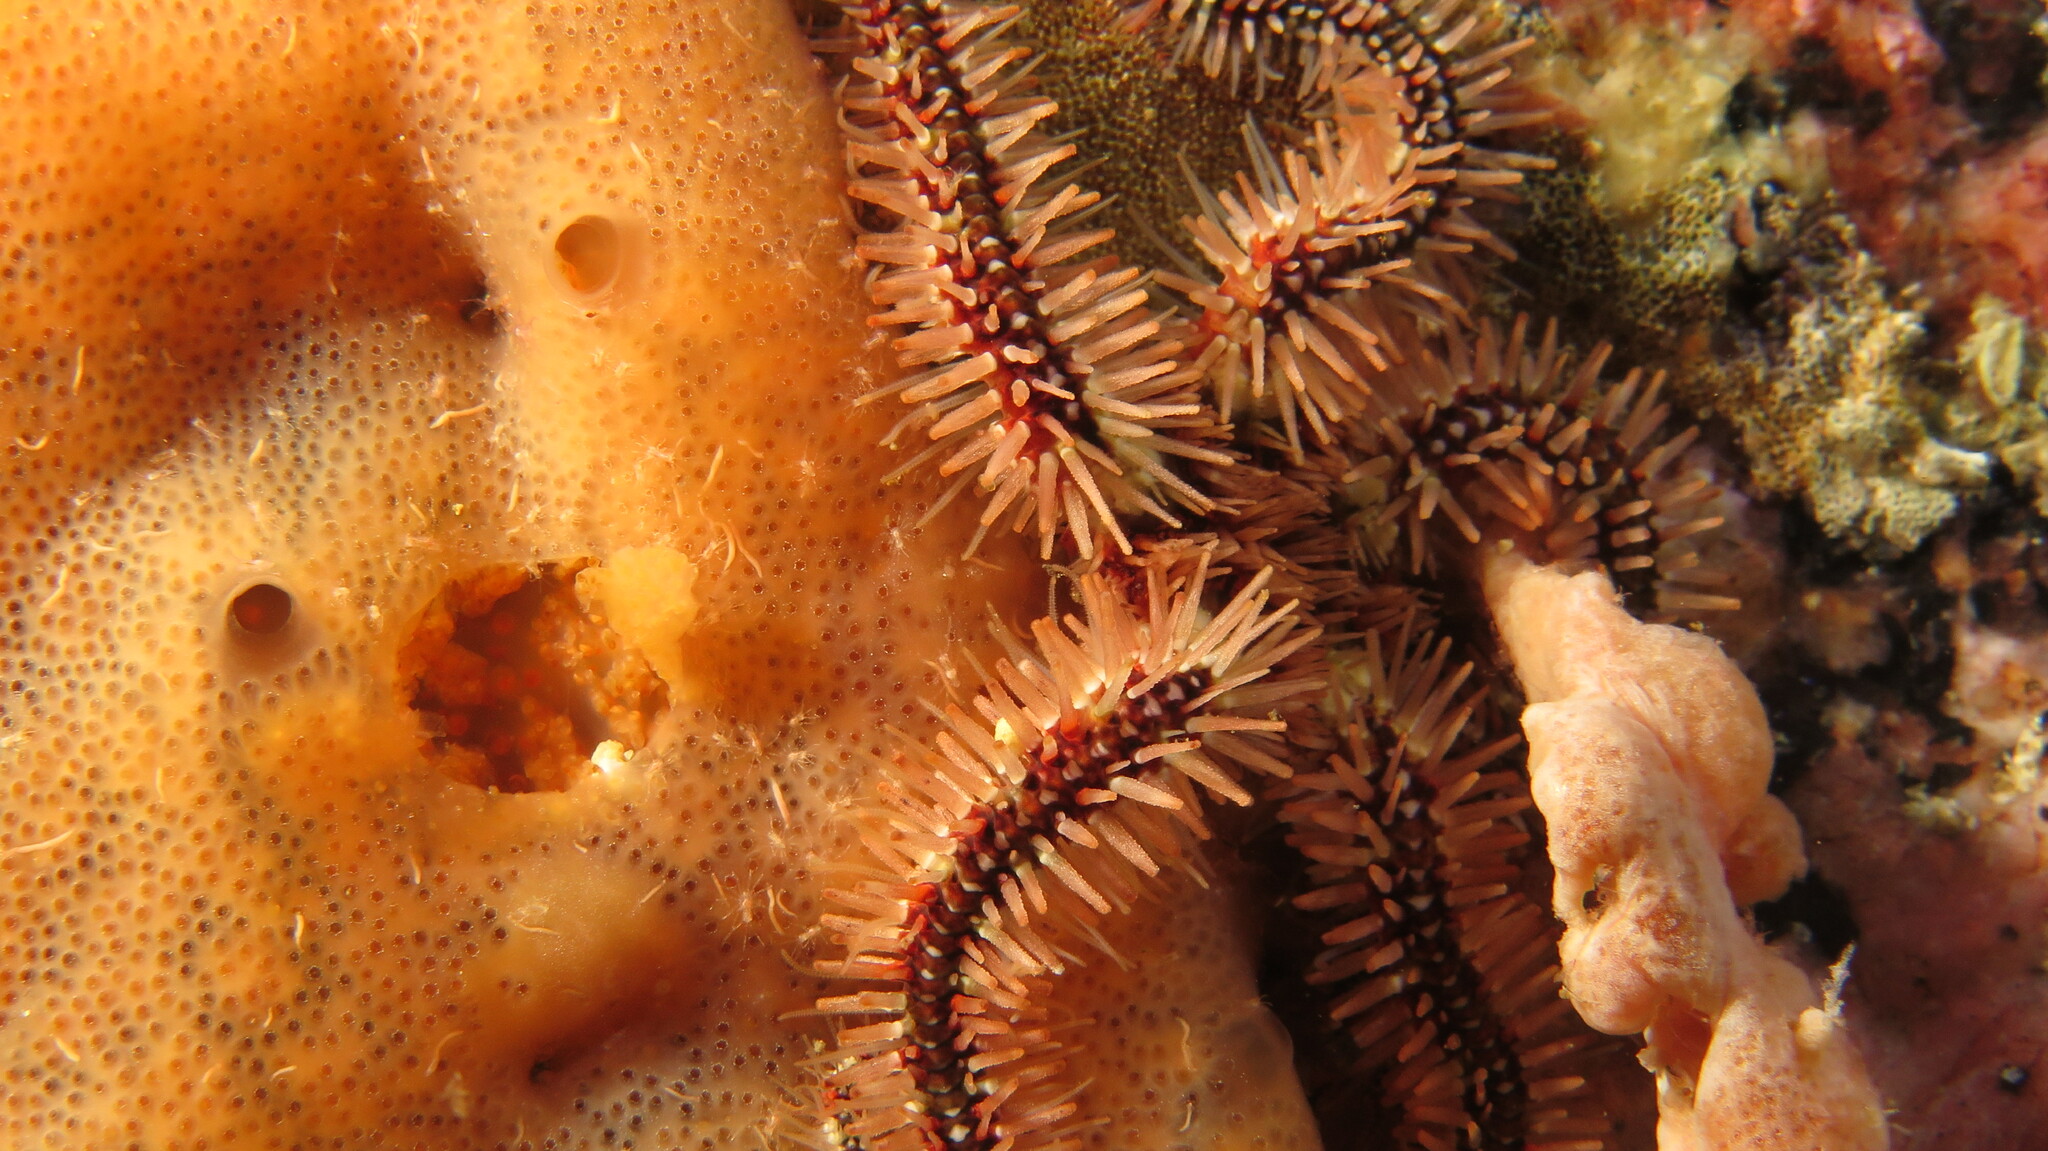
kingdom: Animalia
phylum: Echinodermata
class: Ophiuroidea
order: Amphilepidida
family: Ophiotrichidae
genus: Ophiothrix
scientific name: Ophiothrix fragilis
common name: Common brittlestar
